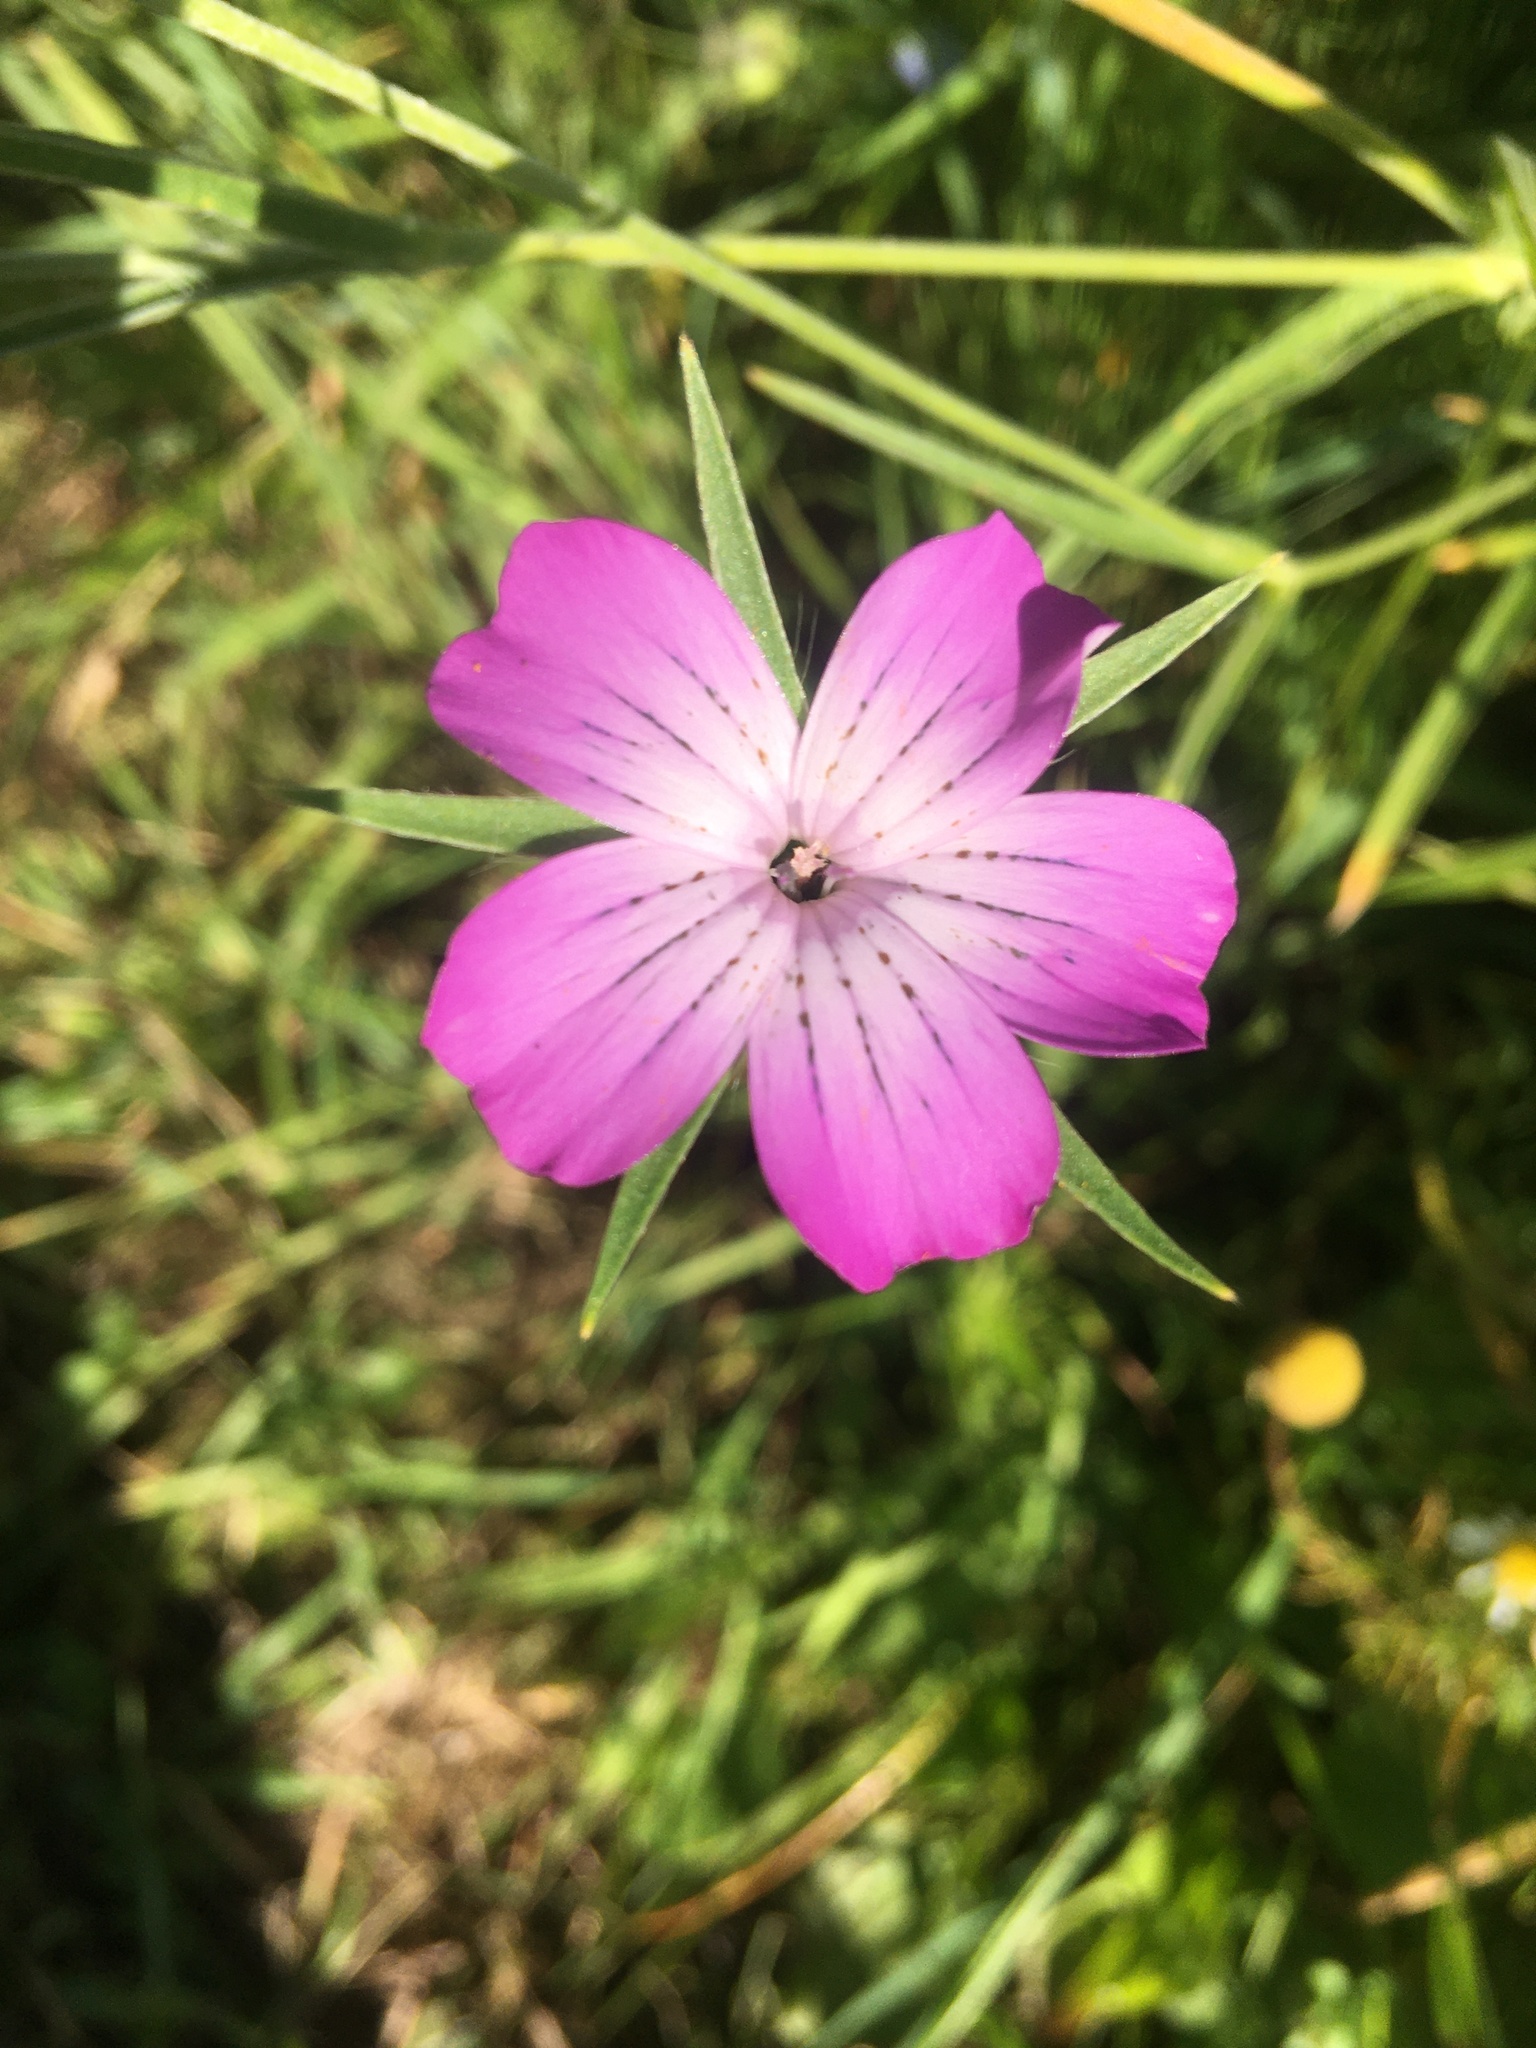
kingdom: Plantae
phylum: Tracheophyta
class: Magnoliopsida
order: Caryophyllales
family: Caryophyllaceae
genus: Agrostemma
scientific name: Agrostemma githago
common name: Common corncockle
